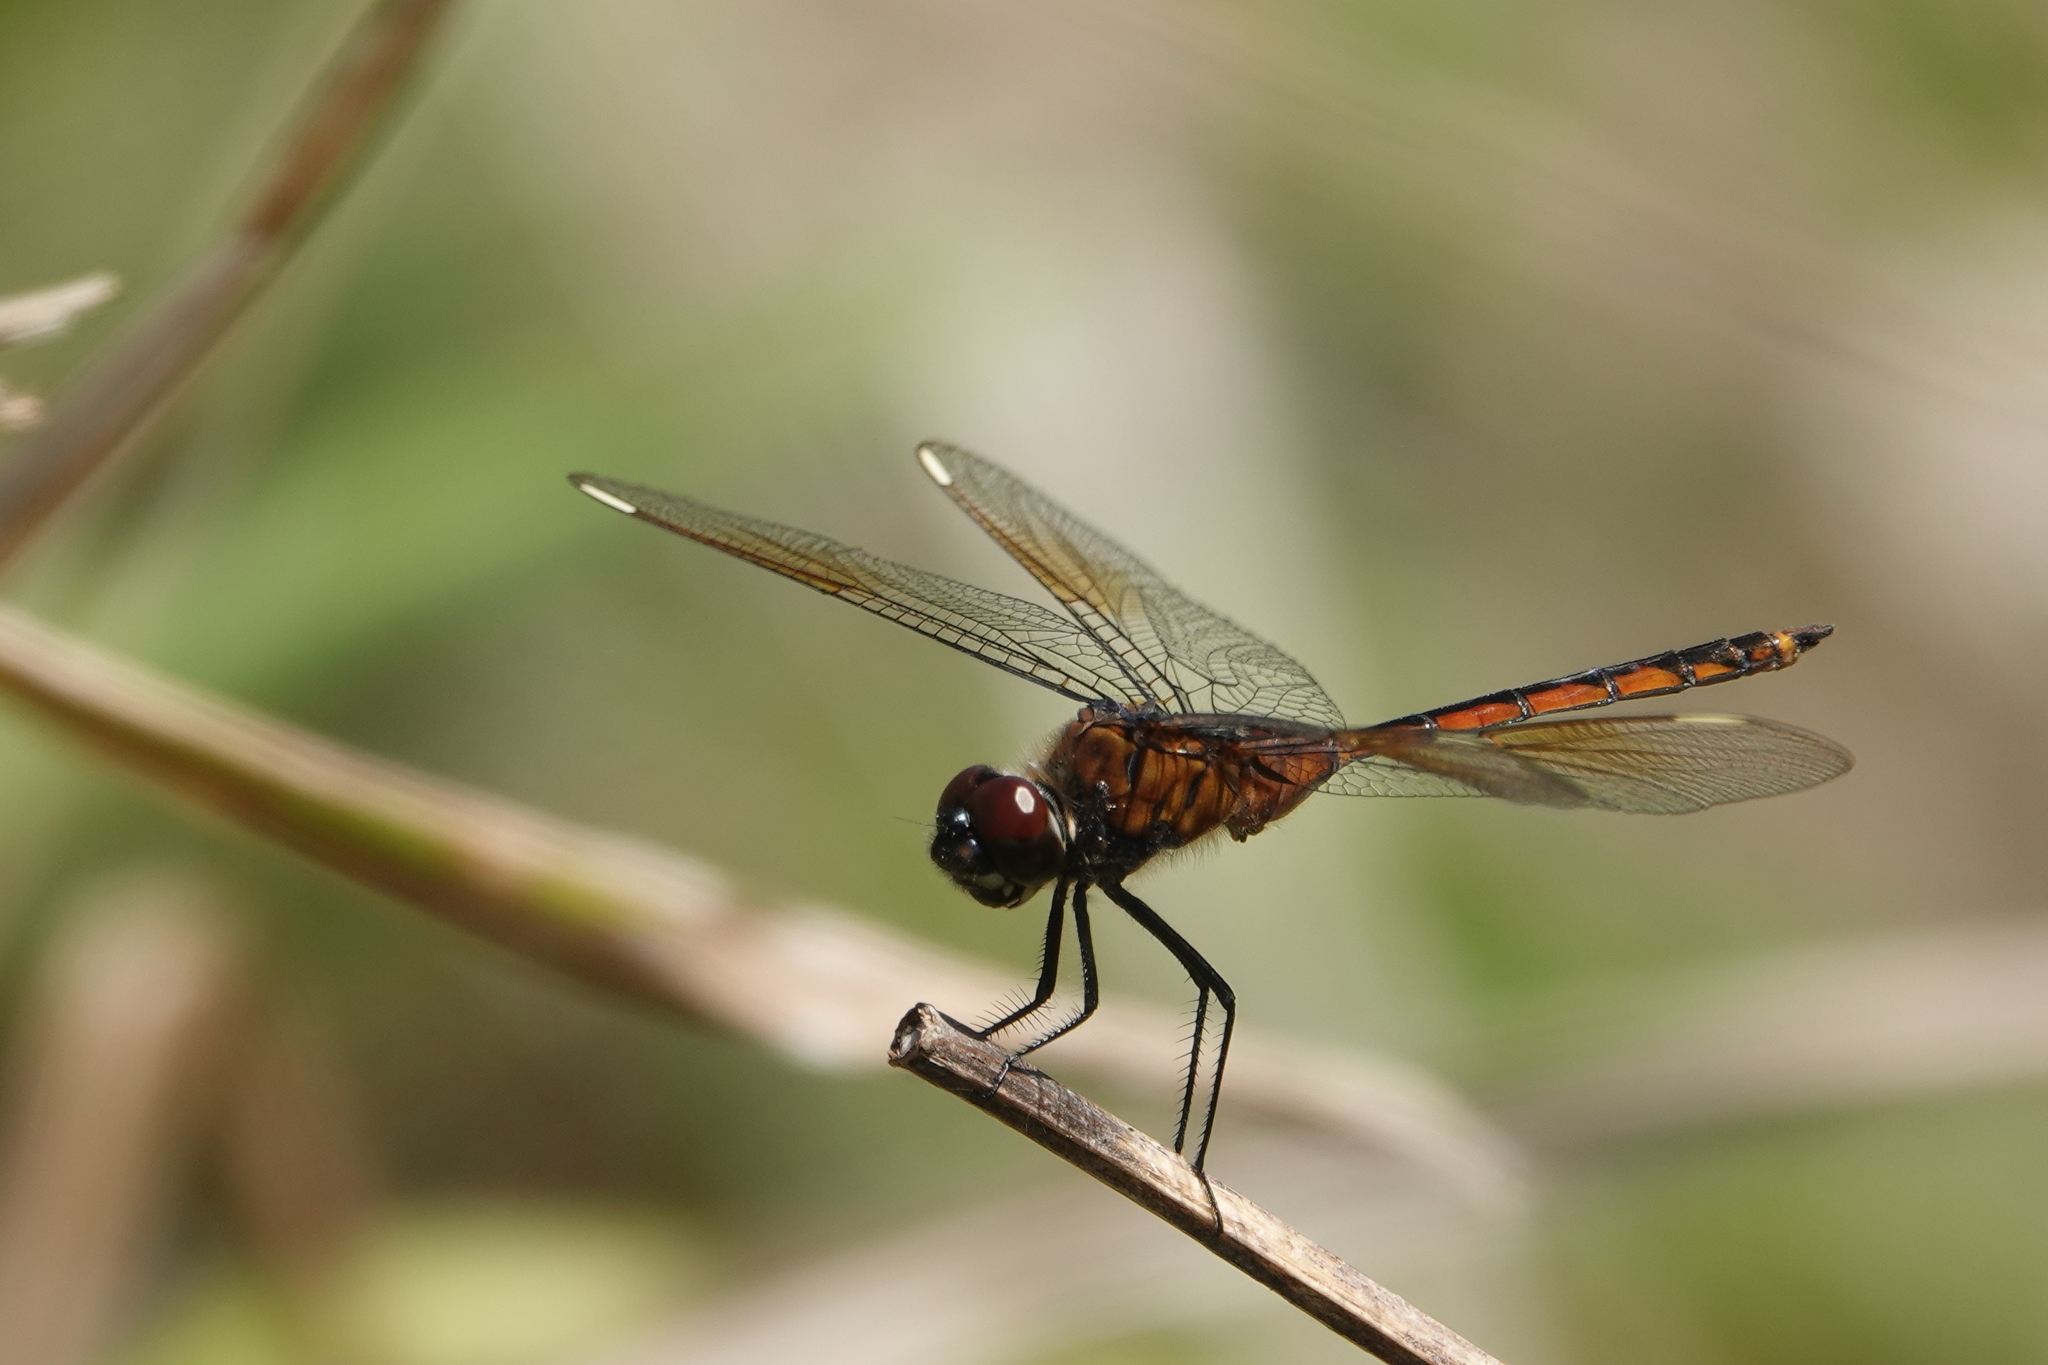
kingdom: Animalia
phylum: Arthropoda
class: Insecta
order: Odonata
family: Libellulidae
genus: Brachymesia
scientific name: Brachymesia gravida
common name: Four-spotted pennant
